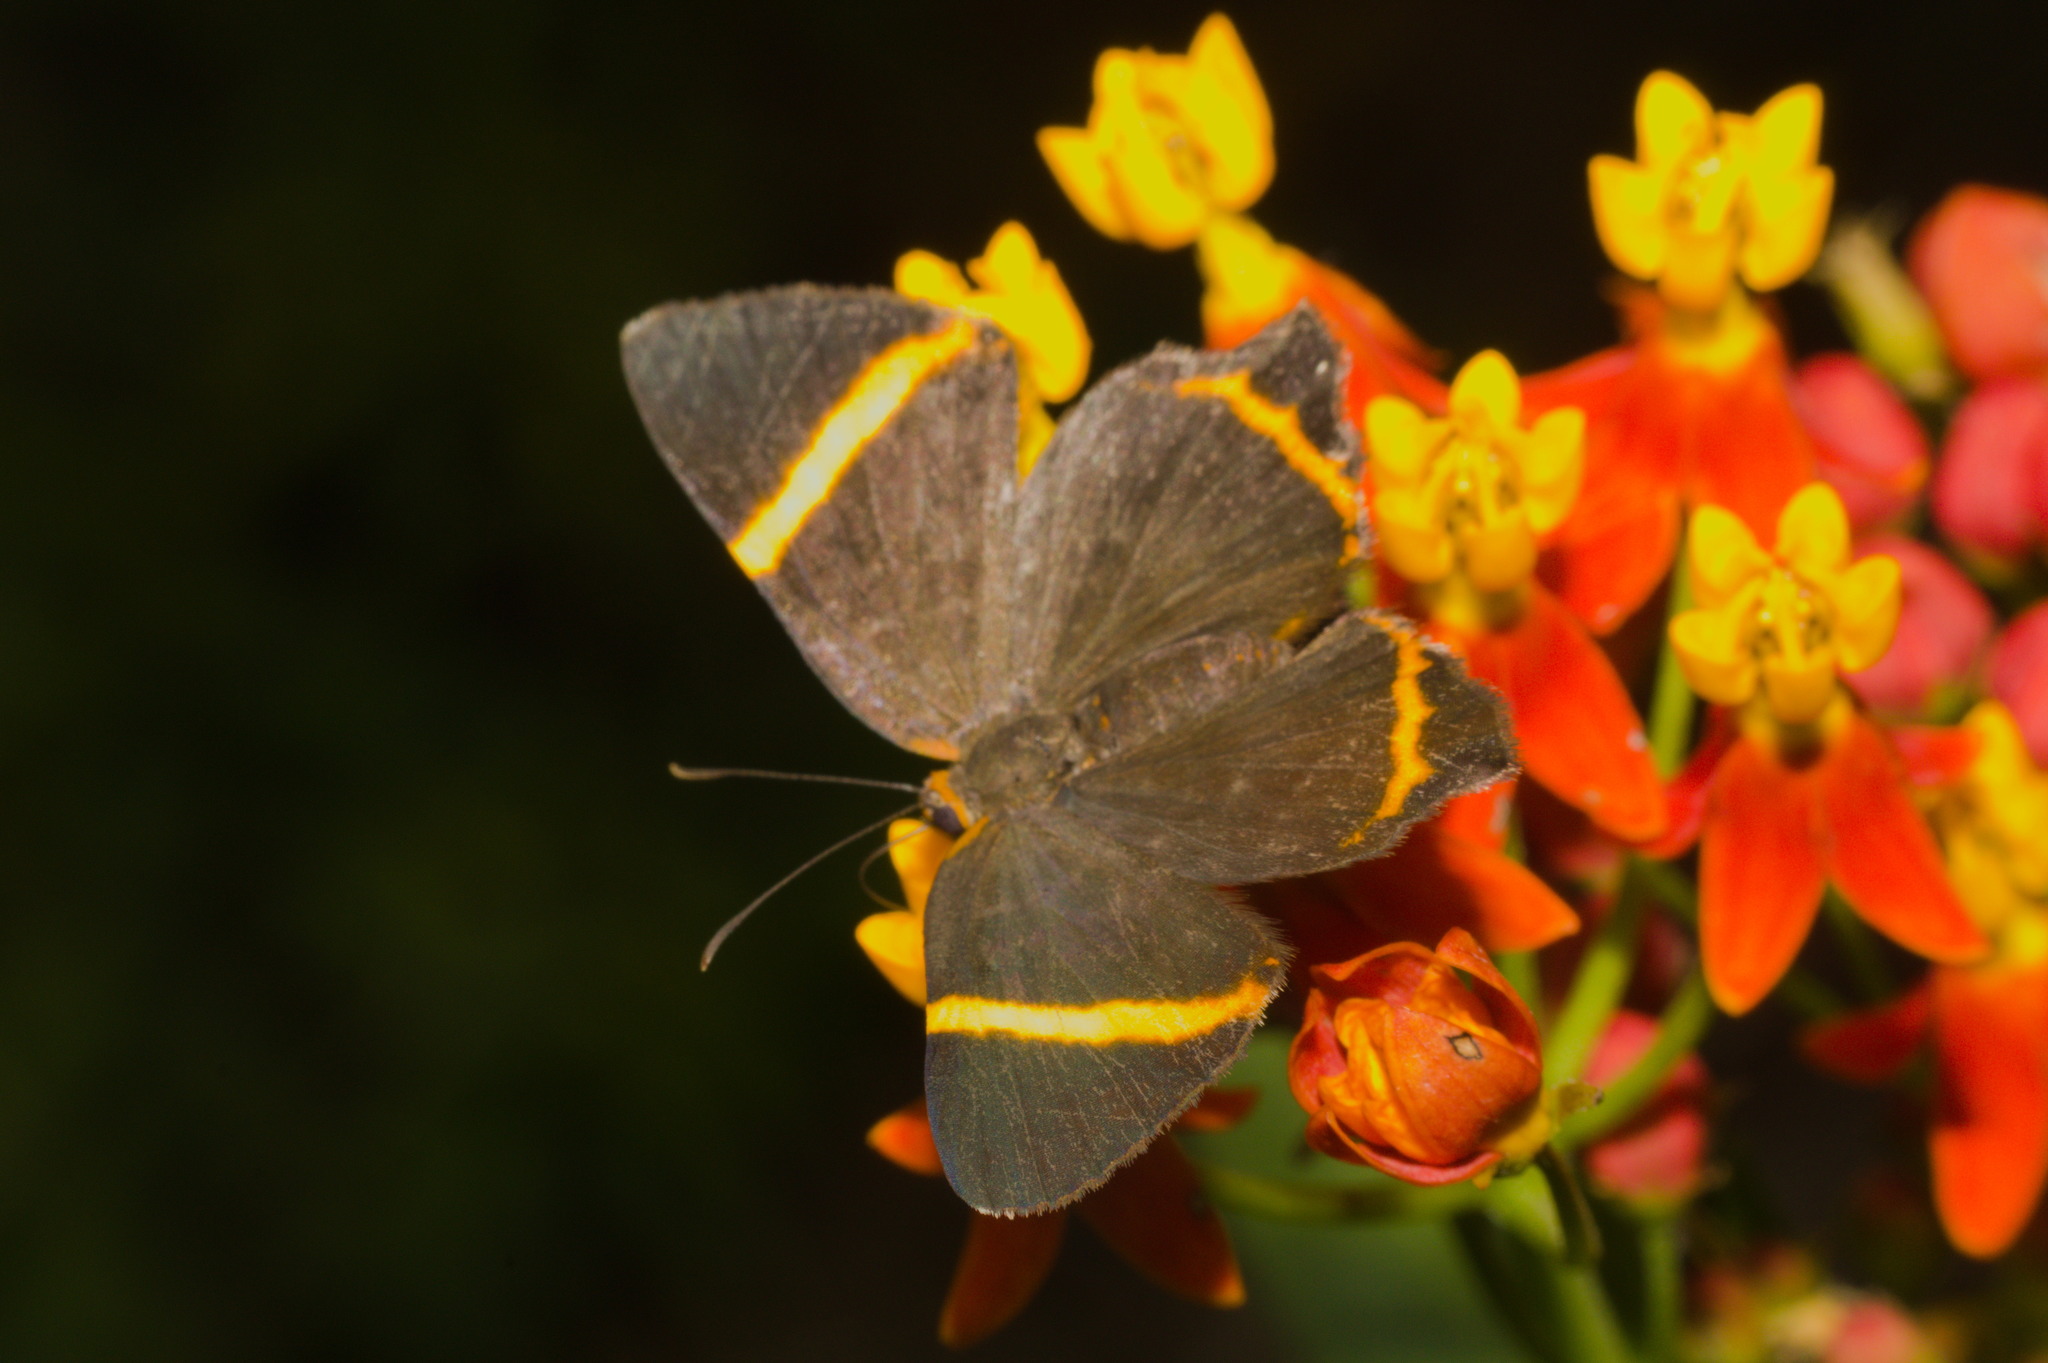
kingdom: Animalia
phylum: Arthropoda
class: Insecta
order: Lepidoptera
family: Riodinidae
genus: Riodina
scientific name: Riodina lysippoides
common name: Little dancer metalmark
